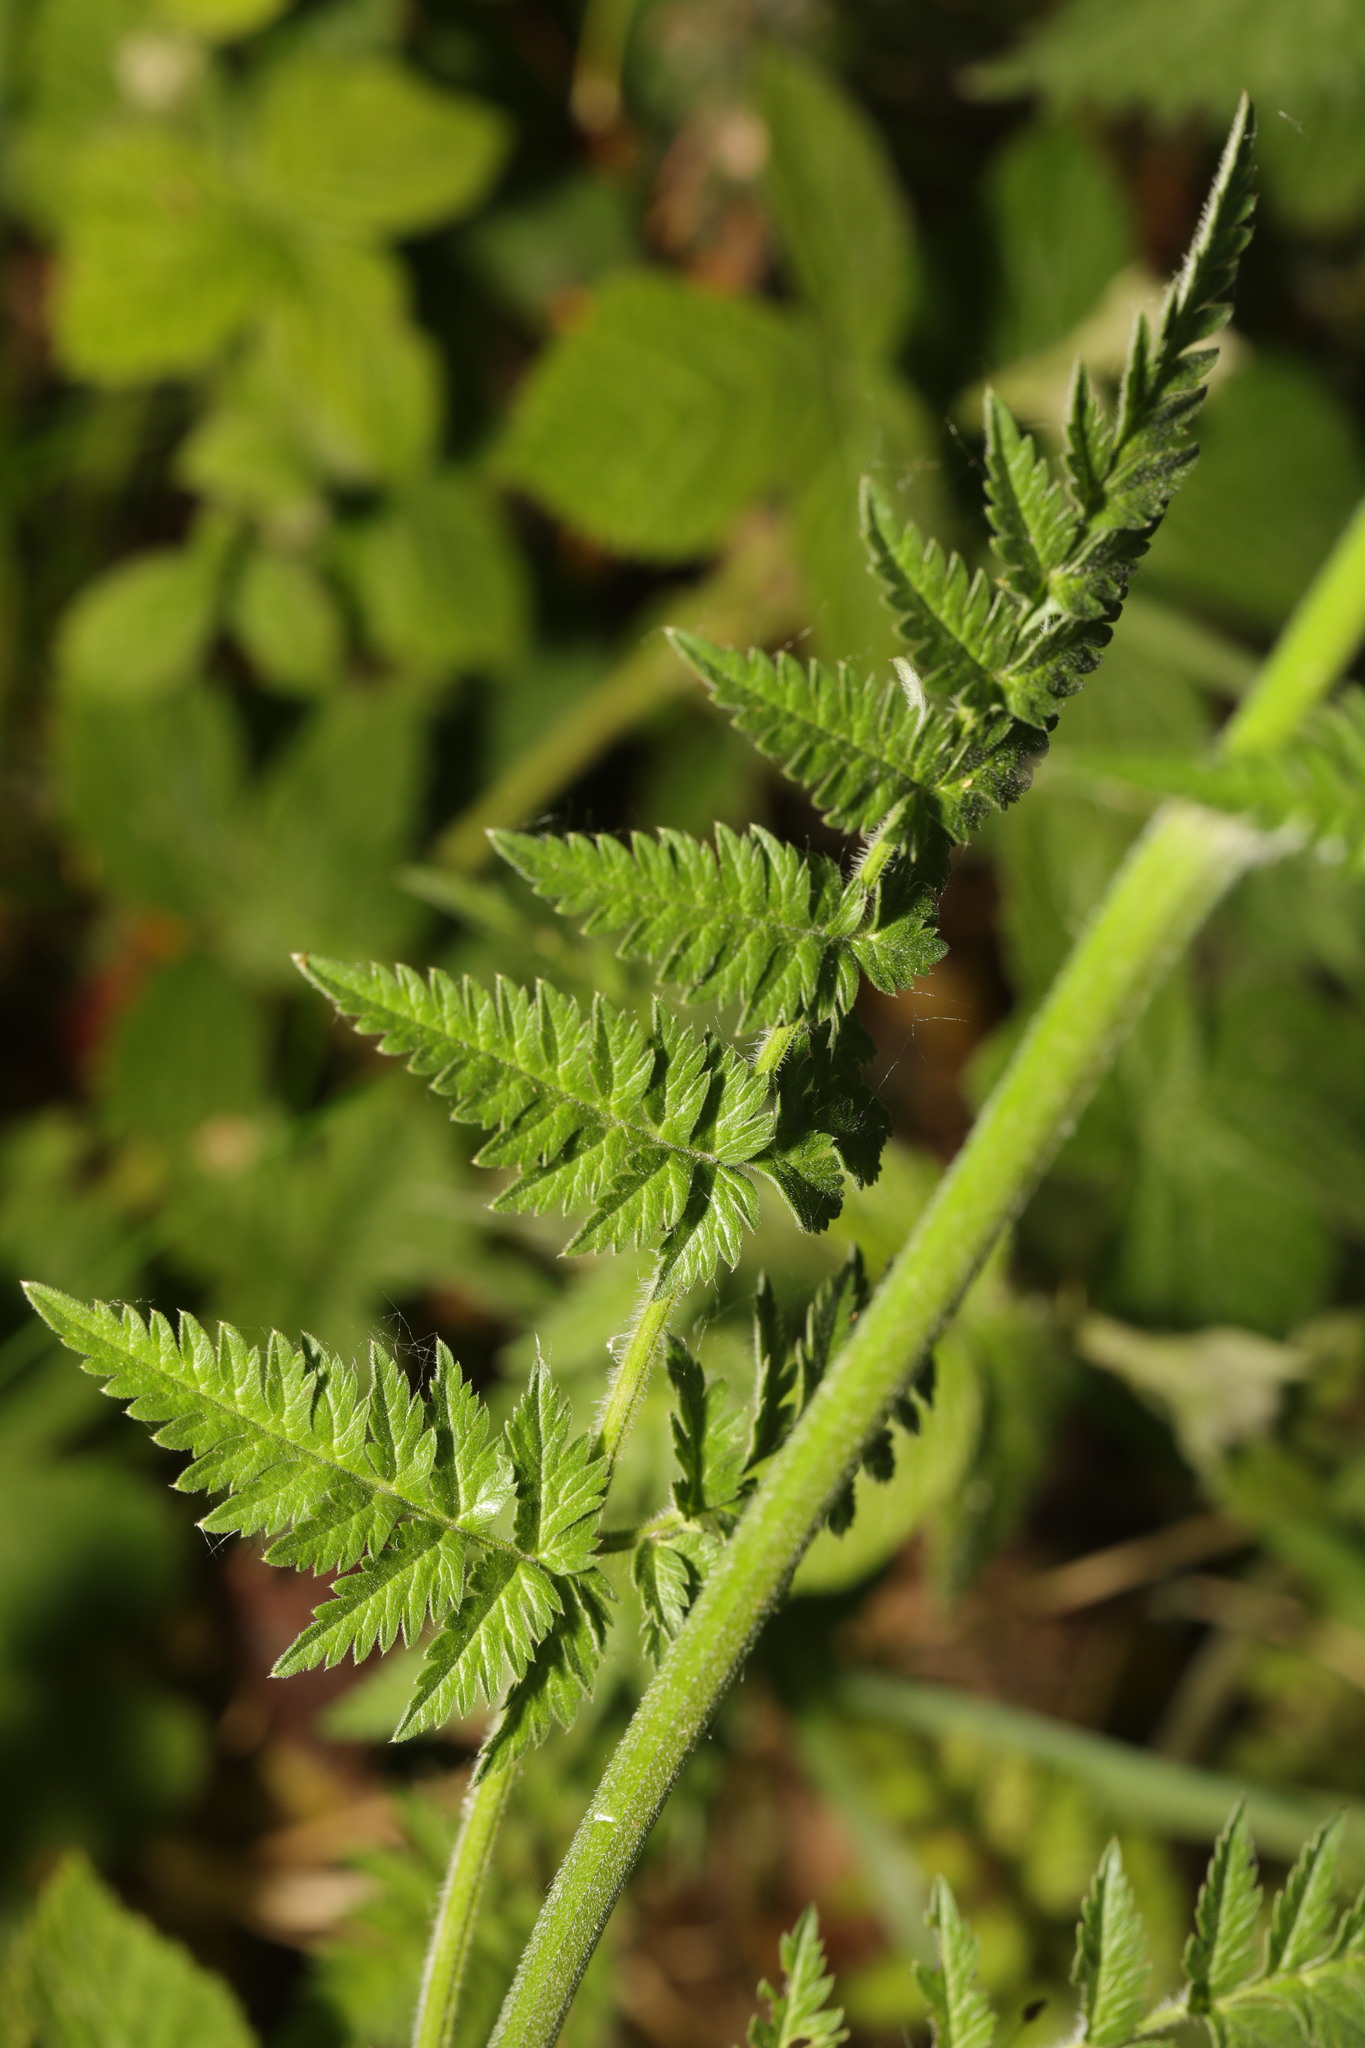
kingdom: Plantae
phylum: Tracheophyta
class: Magnoliopsida
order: Apiales
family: Apiaceae
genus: Anthriscus
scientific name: Anthriscus sylvestris
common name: Cow parsley
